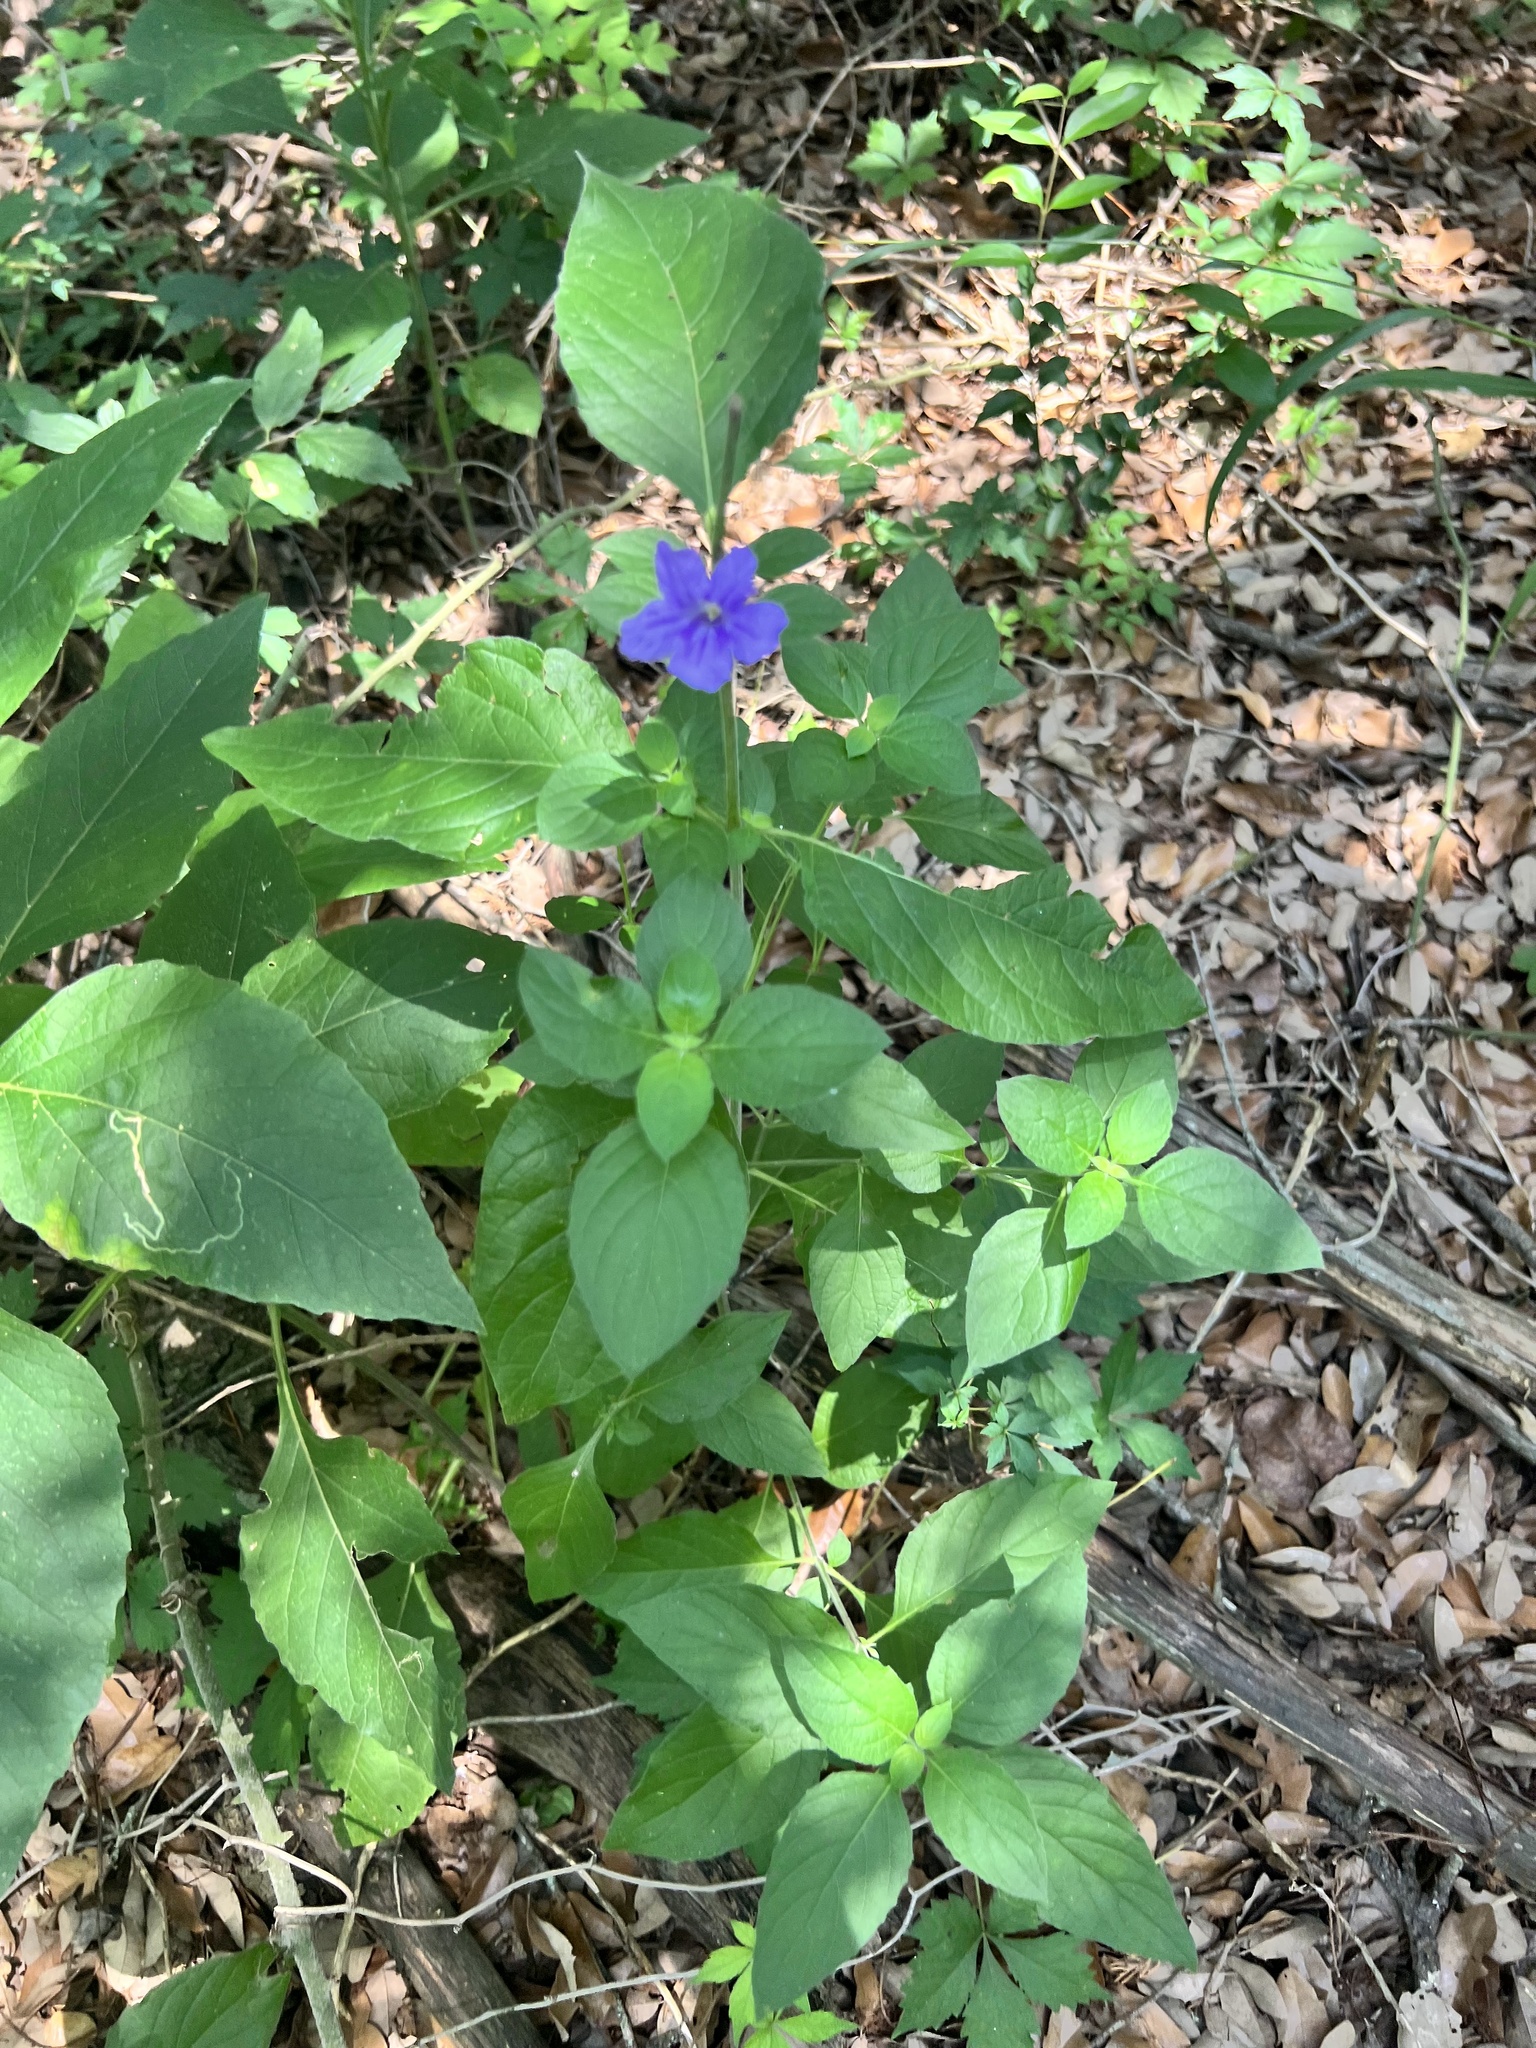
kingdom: Plantae
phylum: Tracheophyta
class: Magnoliopsida
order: Lamiales
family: Acanthaceae
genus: Ruellia
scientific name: Ruellia drummondiana
